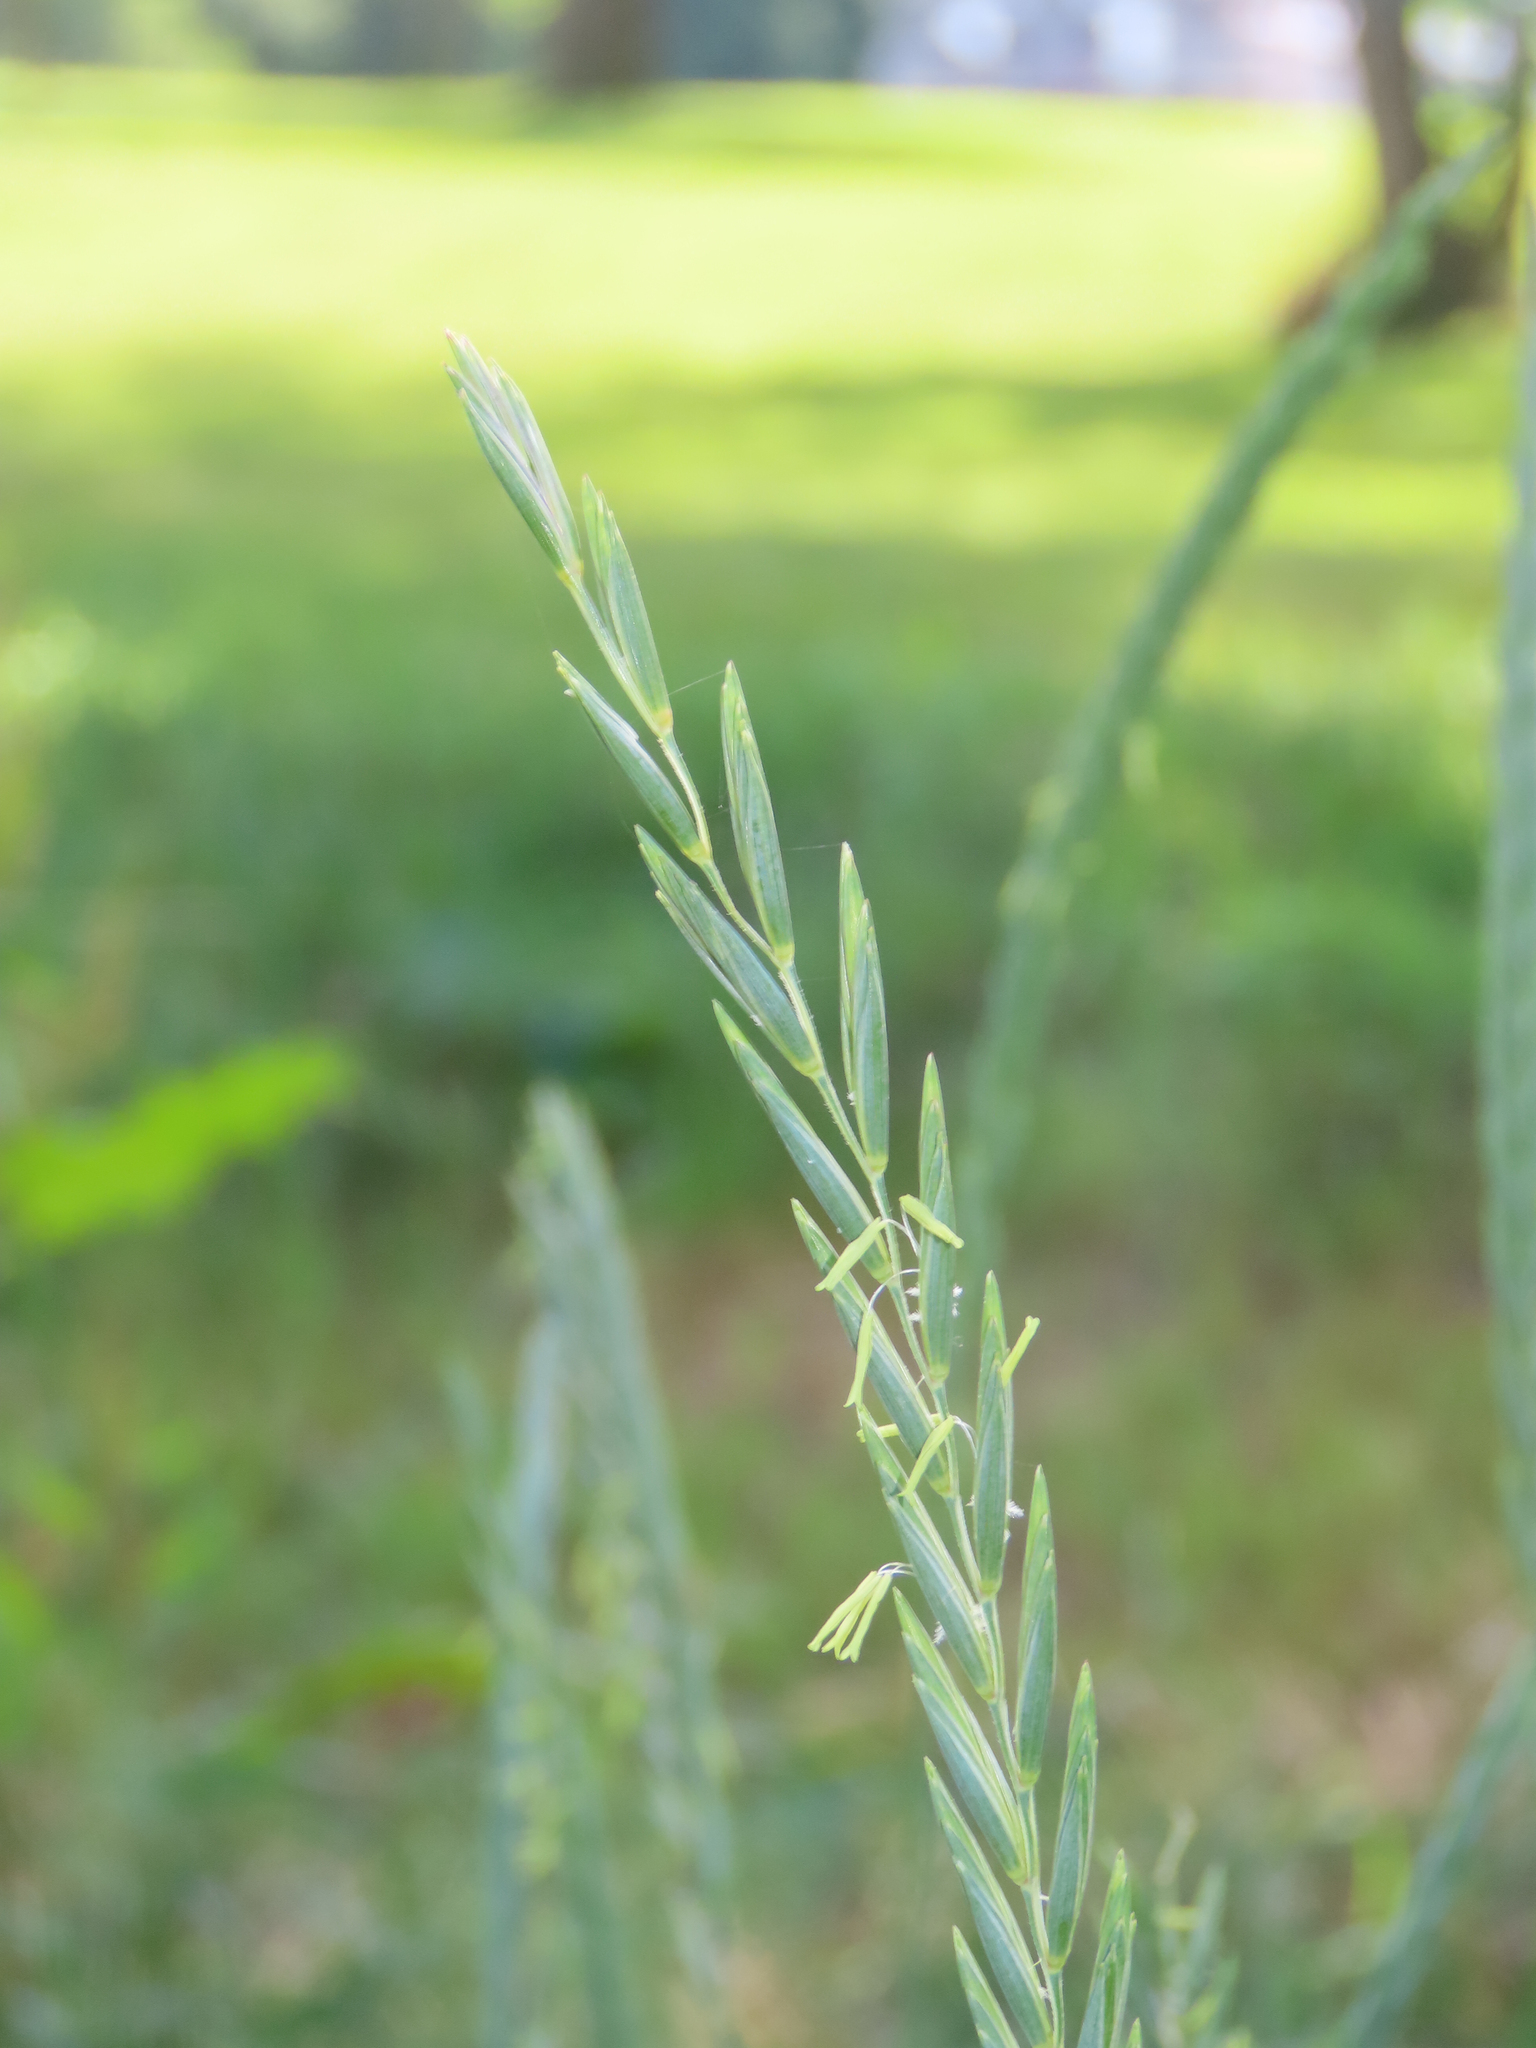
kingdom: Plantae
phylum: Tracheophyta
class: Liliopsida
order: Poales
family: Poaceae
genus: Elymus
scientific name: Elymus repens
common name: Quackgrass
